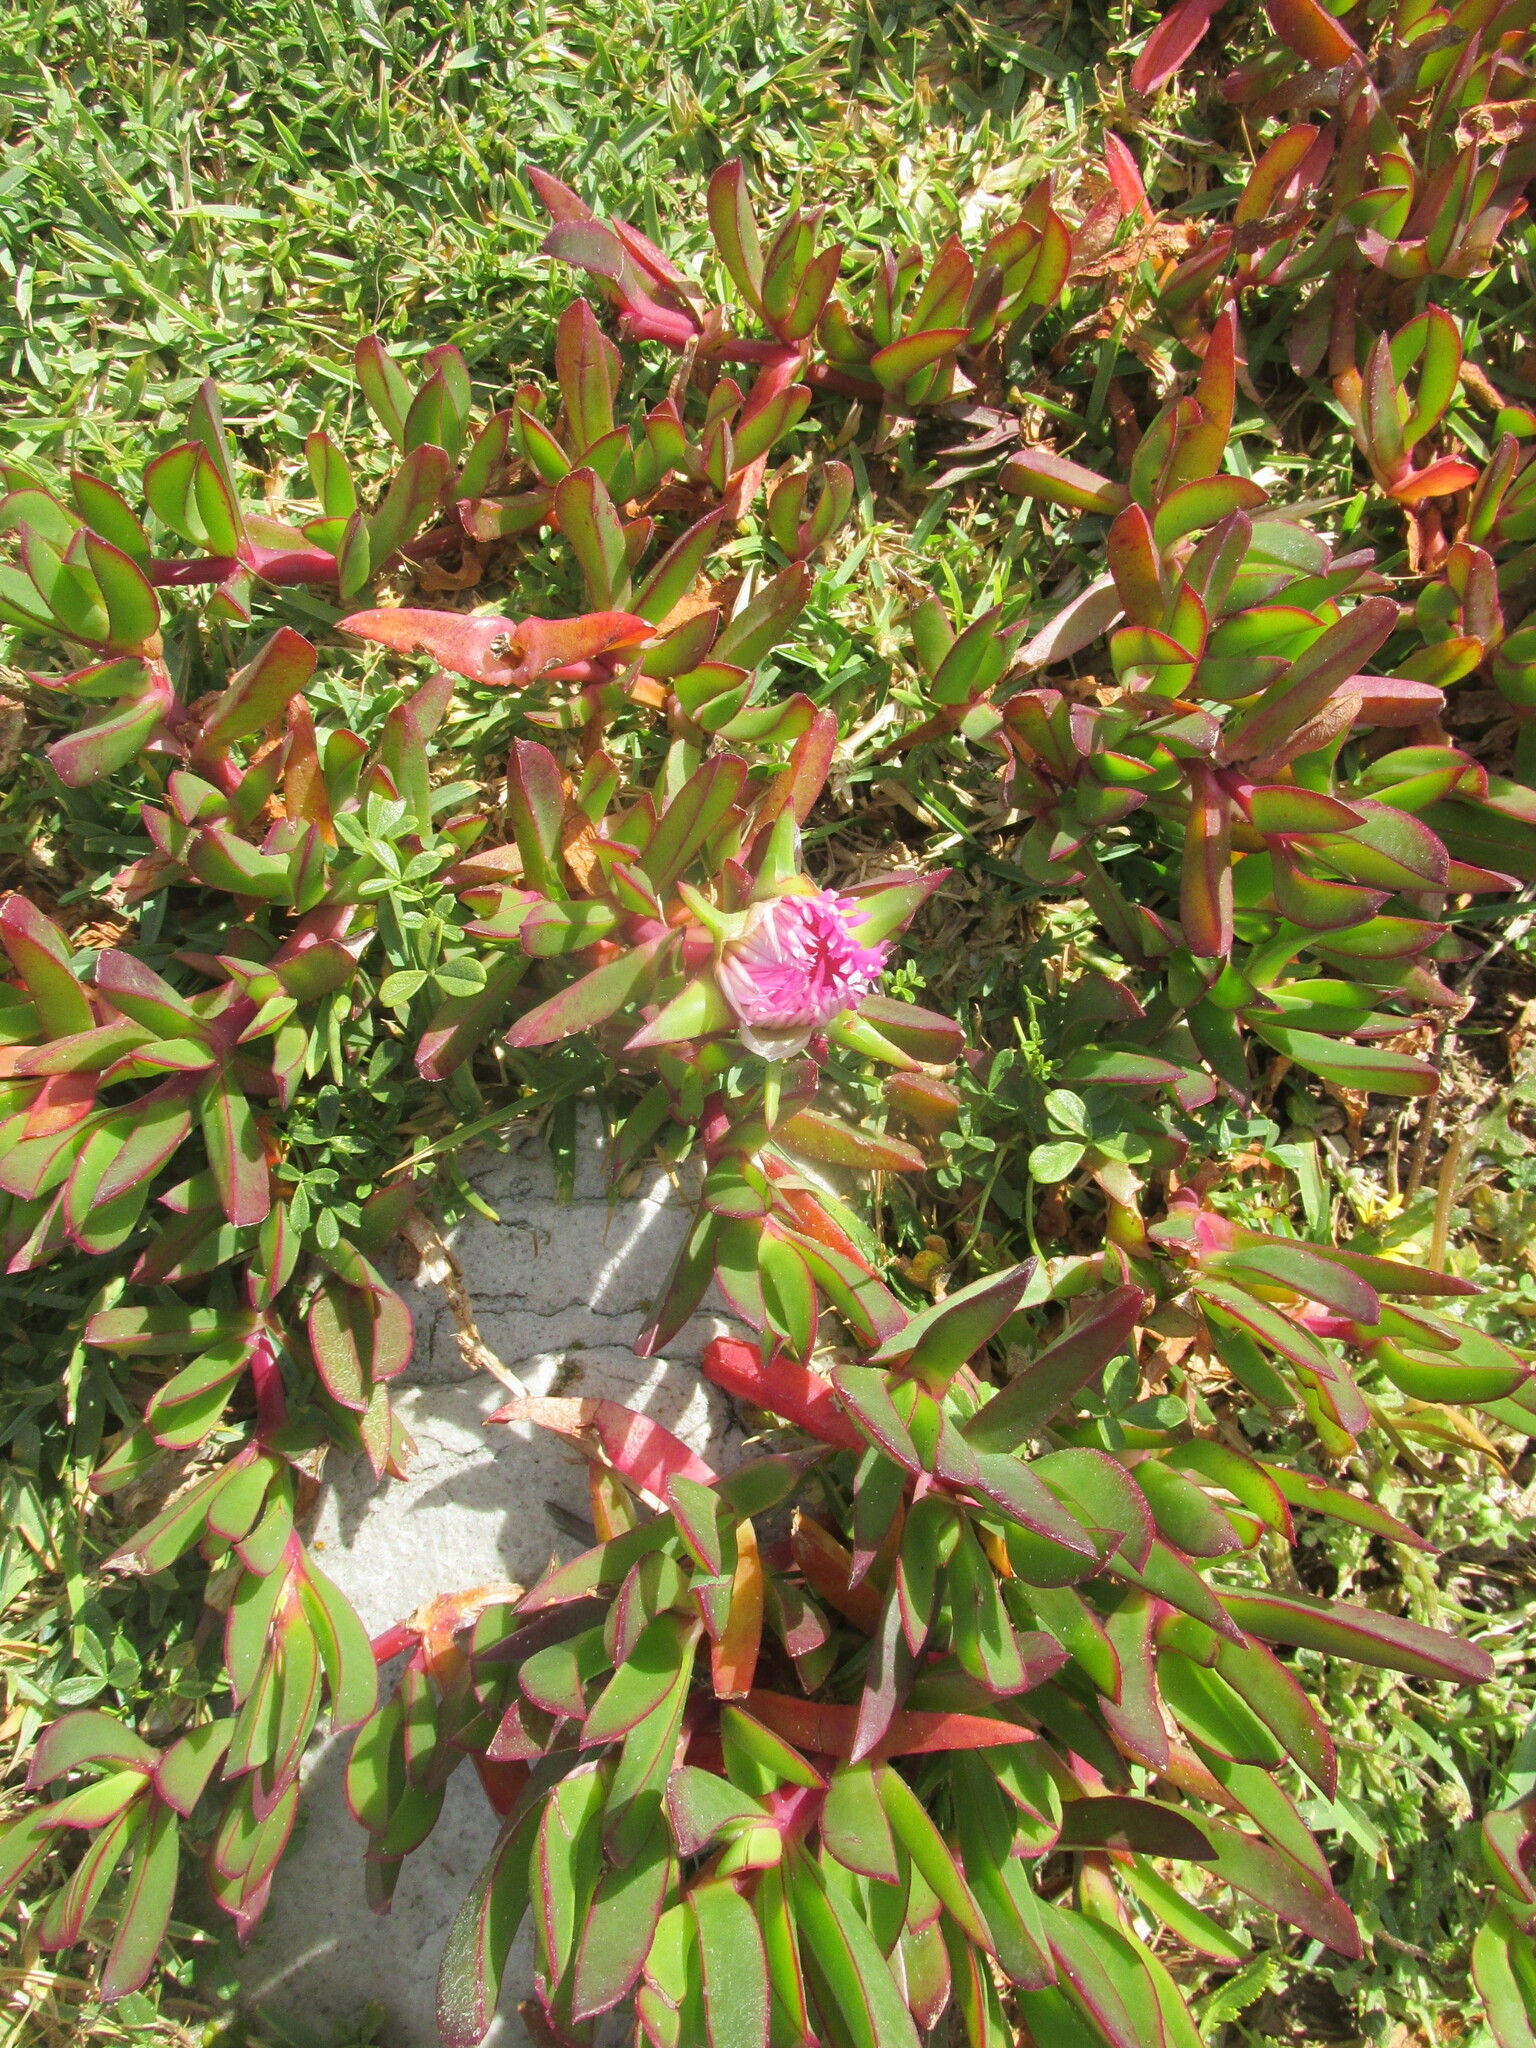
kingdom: Plantae
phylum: Tracheophyta
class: Magnoliopsida
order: Caryophyllales
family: Aizoaceae
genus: Carpobrotus
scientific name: Carpobrotus acinaciformis
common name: Sally-my-handsome
